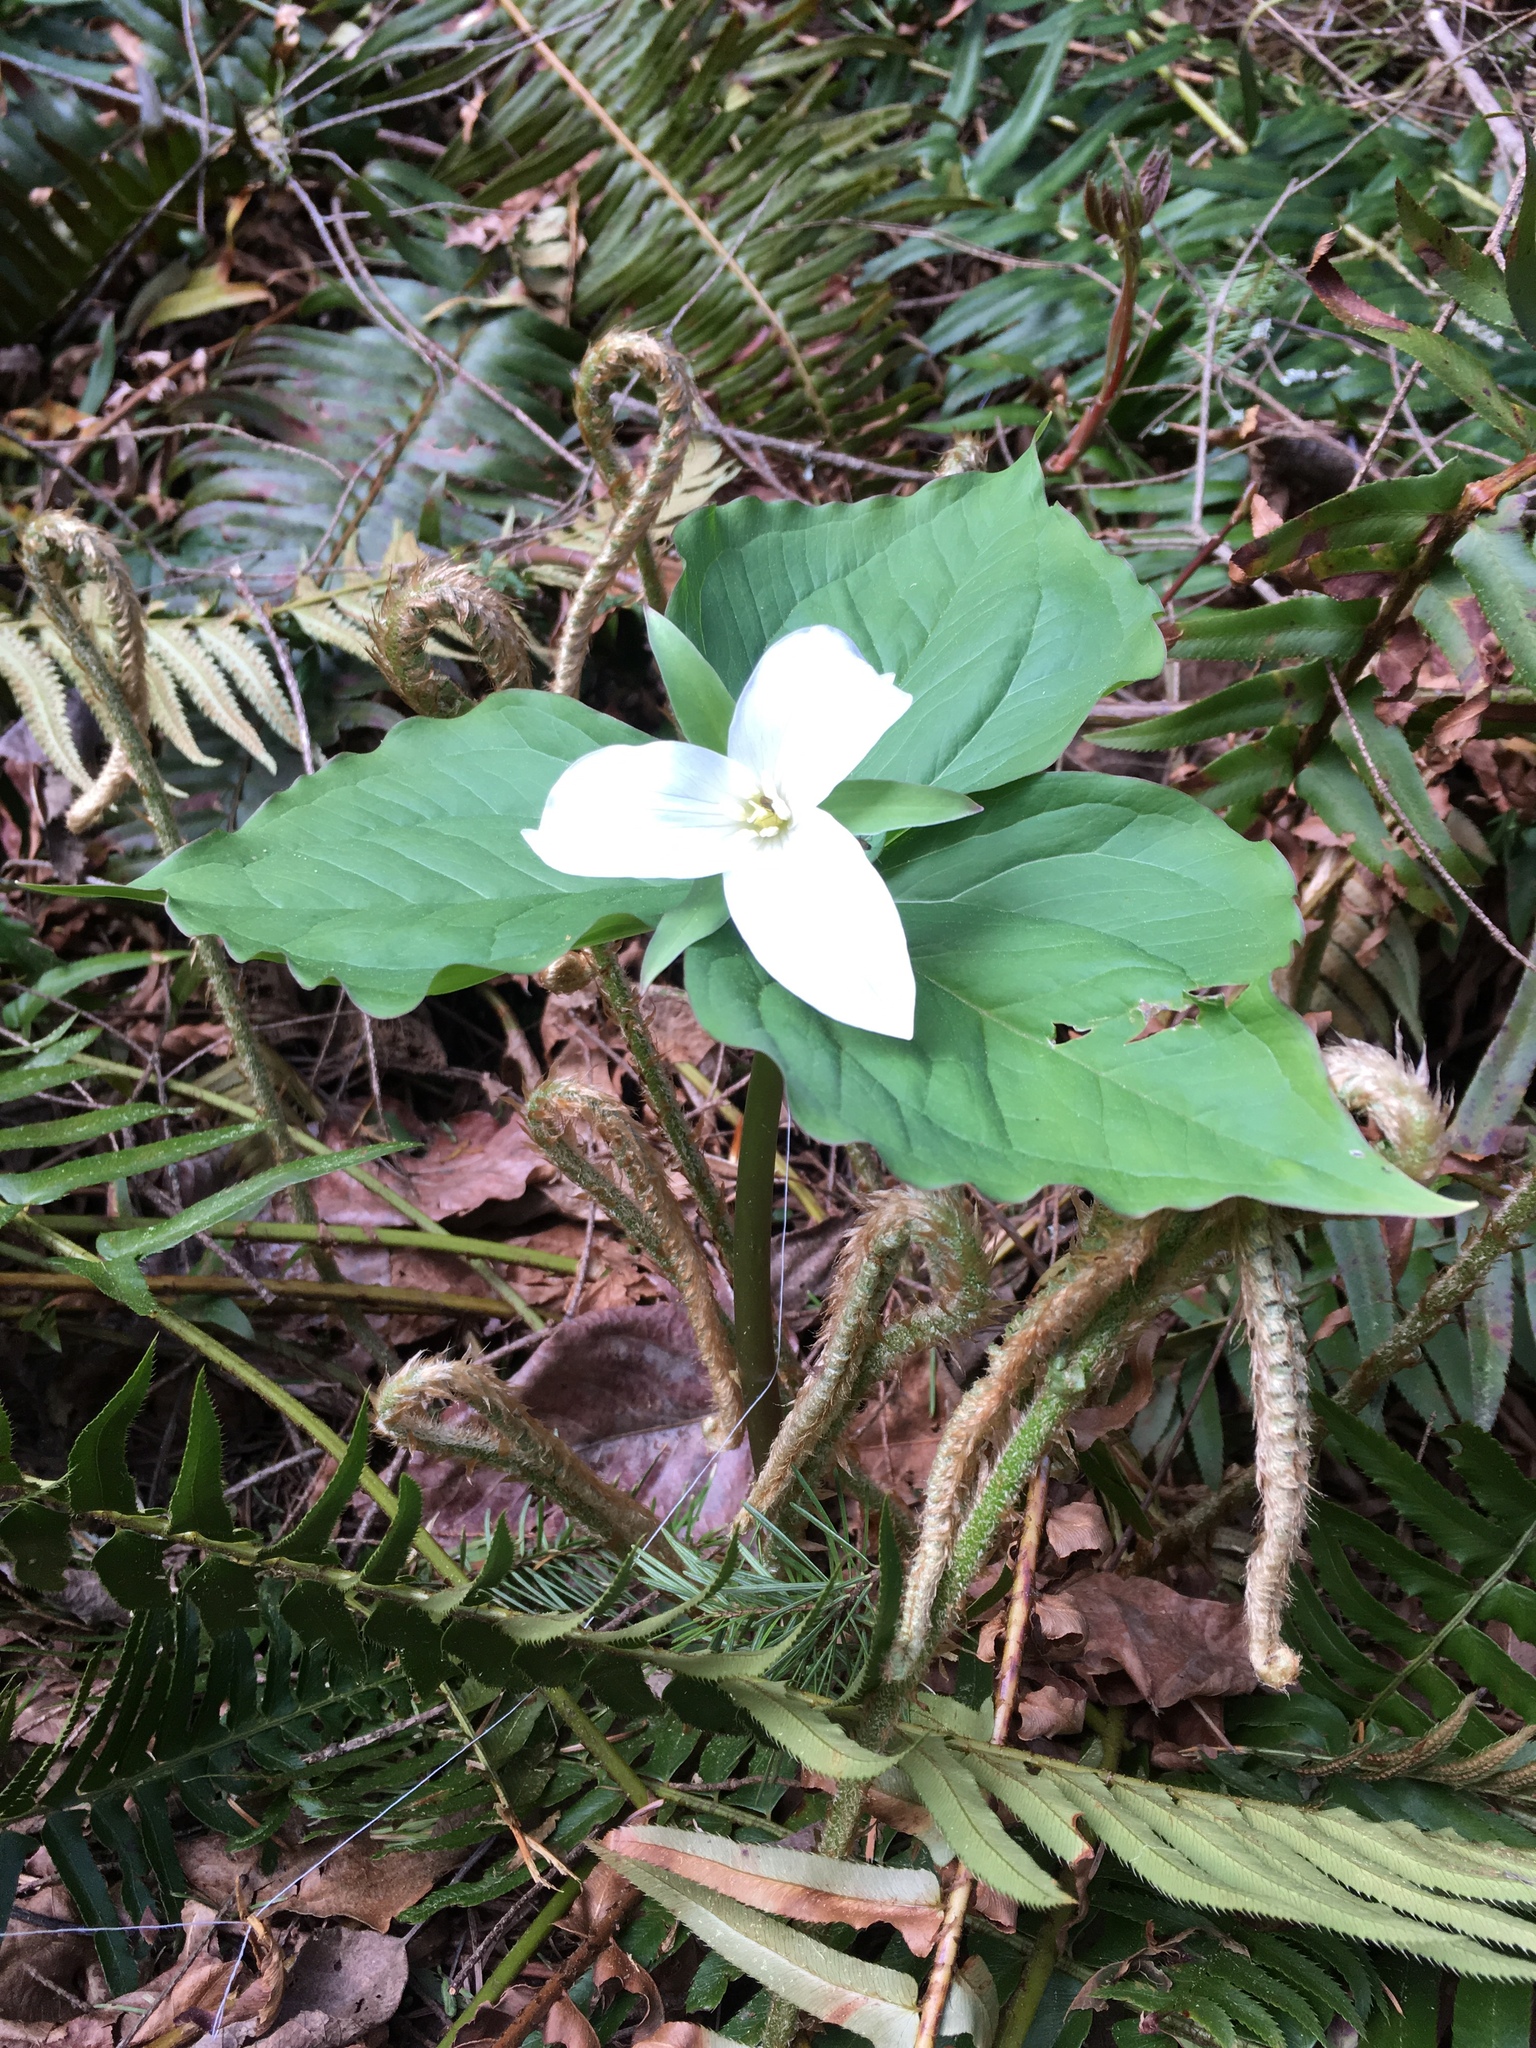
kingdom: Plantae
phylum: Tracheophyta
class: Liliopsida
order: Liliales
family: Melanthiaceae
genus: Trillium
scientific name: Trillium ovatum
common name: Pacific trillium
